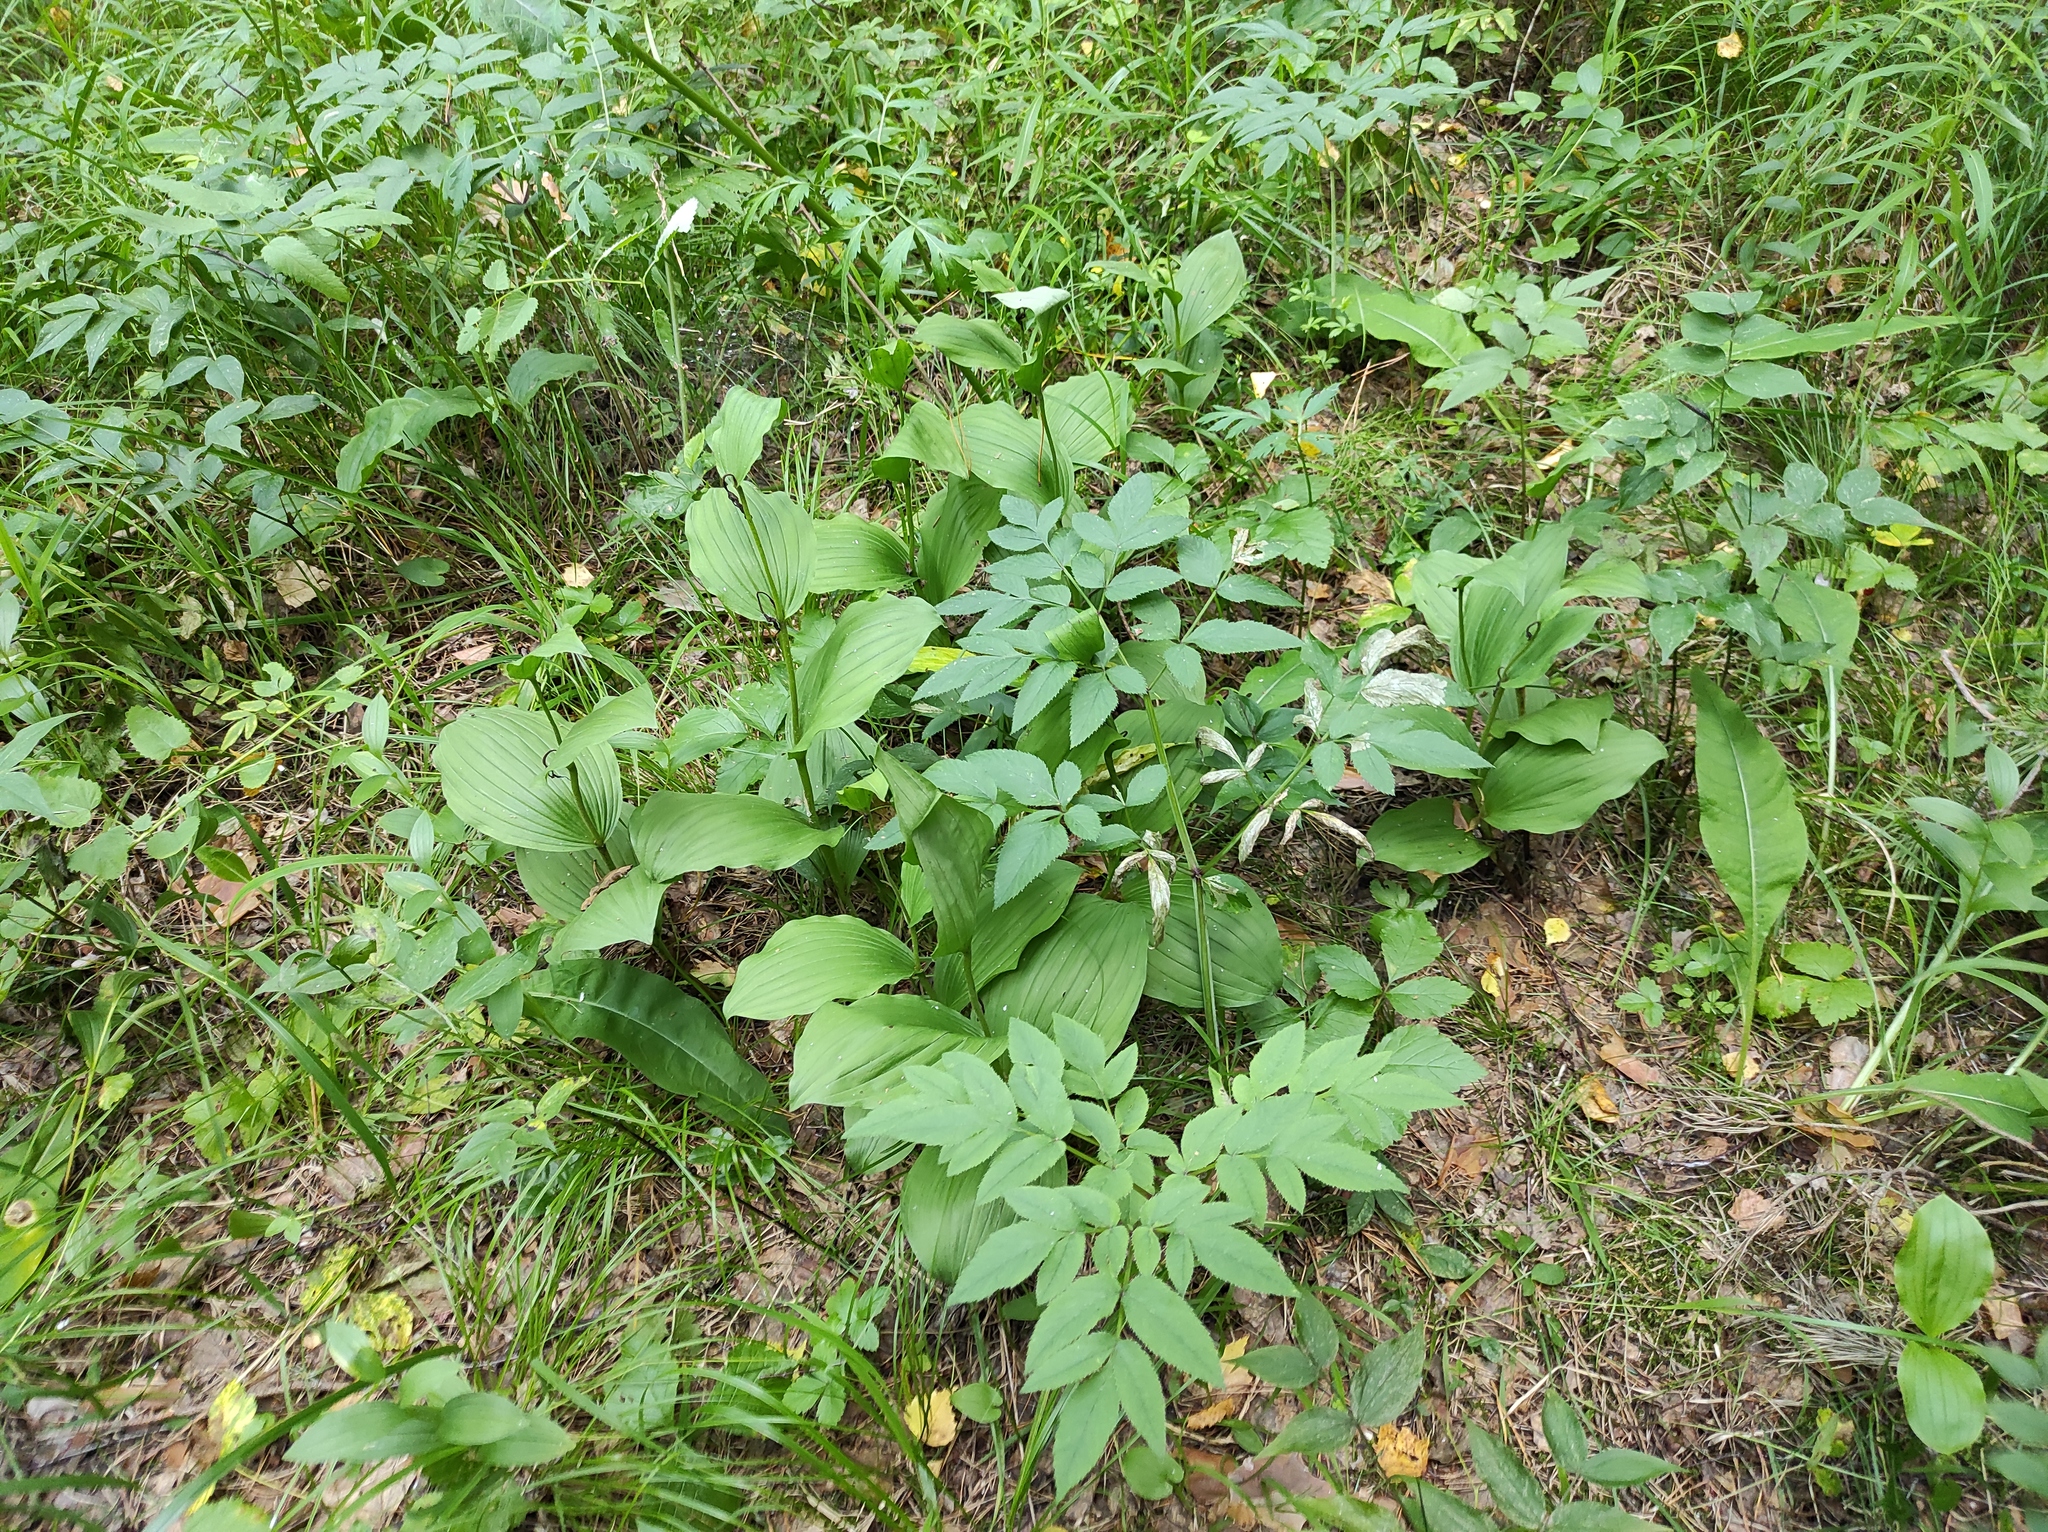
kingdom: Plantae
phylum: Tracheophyta
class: Magnoliopsida
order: Apiales
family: Apiaceae
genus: Angelica
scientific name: Angelica sylvestris
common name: Wild angelica
